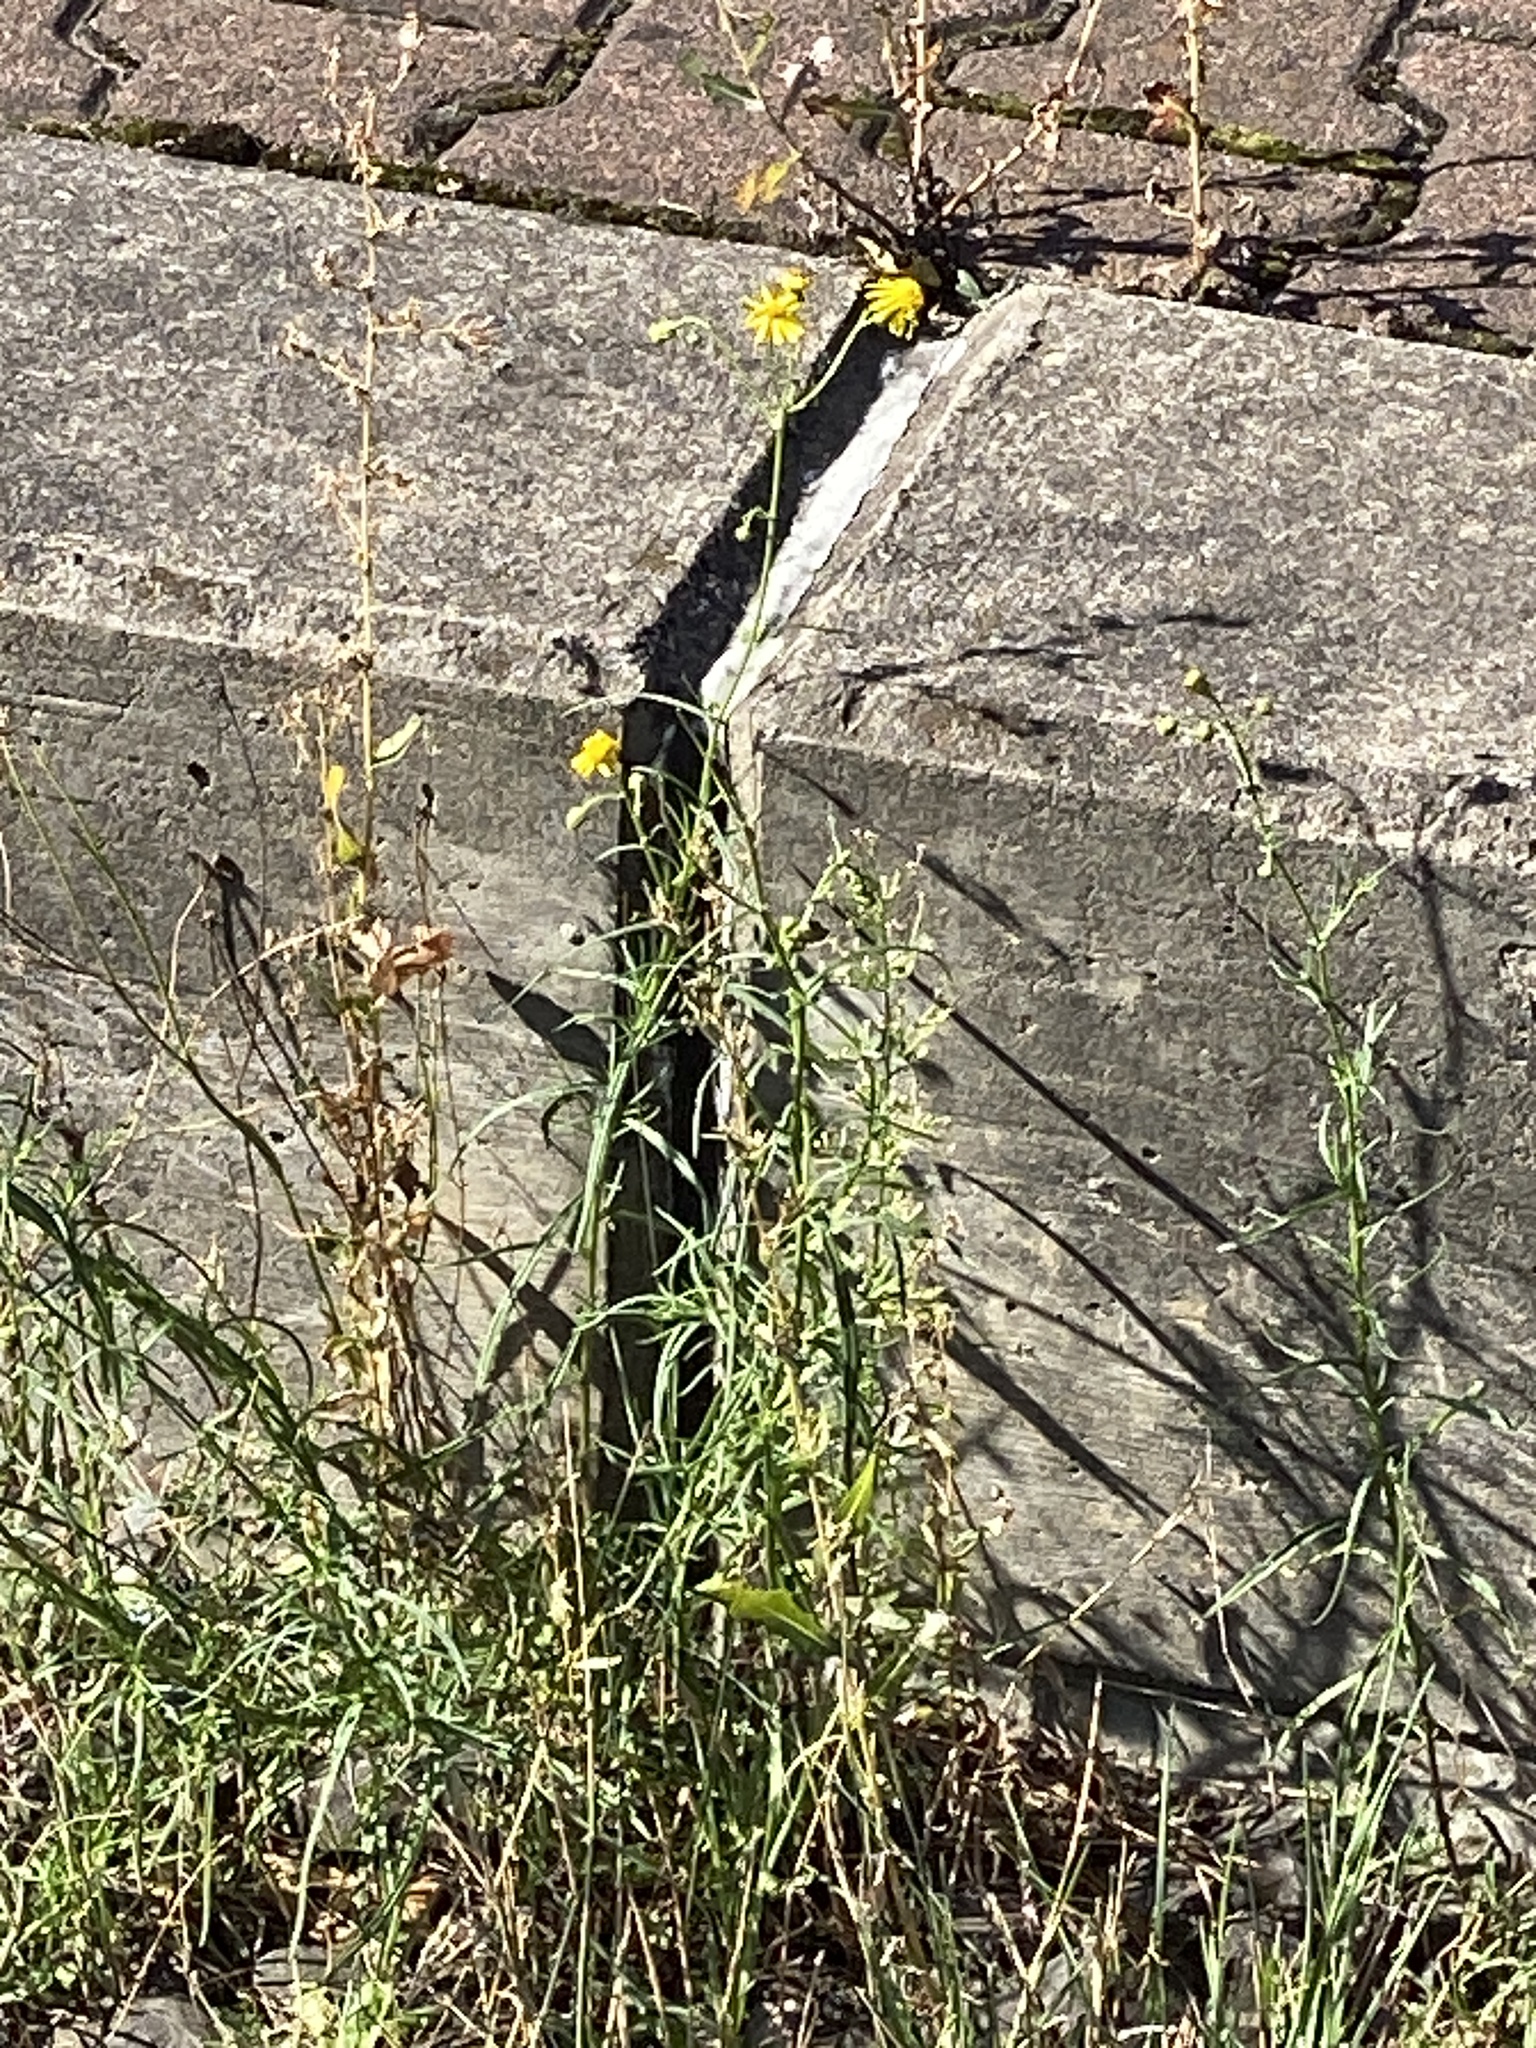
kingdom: Plantae
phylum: Tracheophyta
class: Magnoliopsida
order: Asterales
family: Asteraceae
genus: Senecio
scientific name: Senecio inaequidens
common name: Narrow-leaved ragwort
